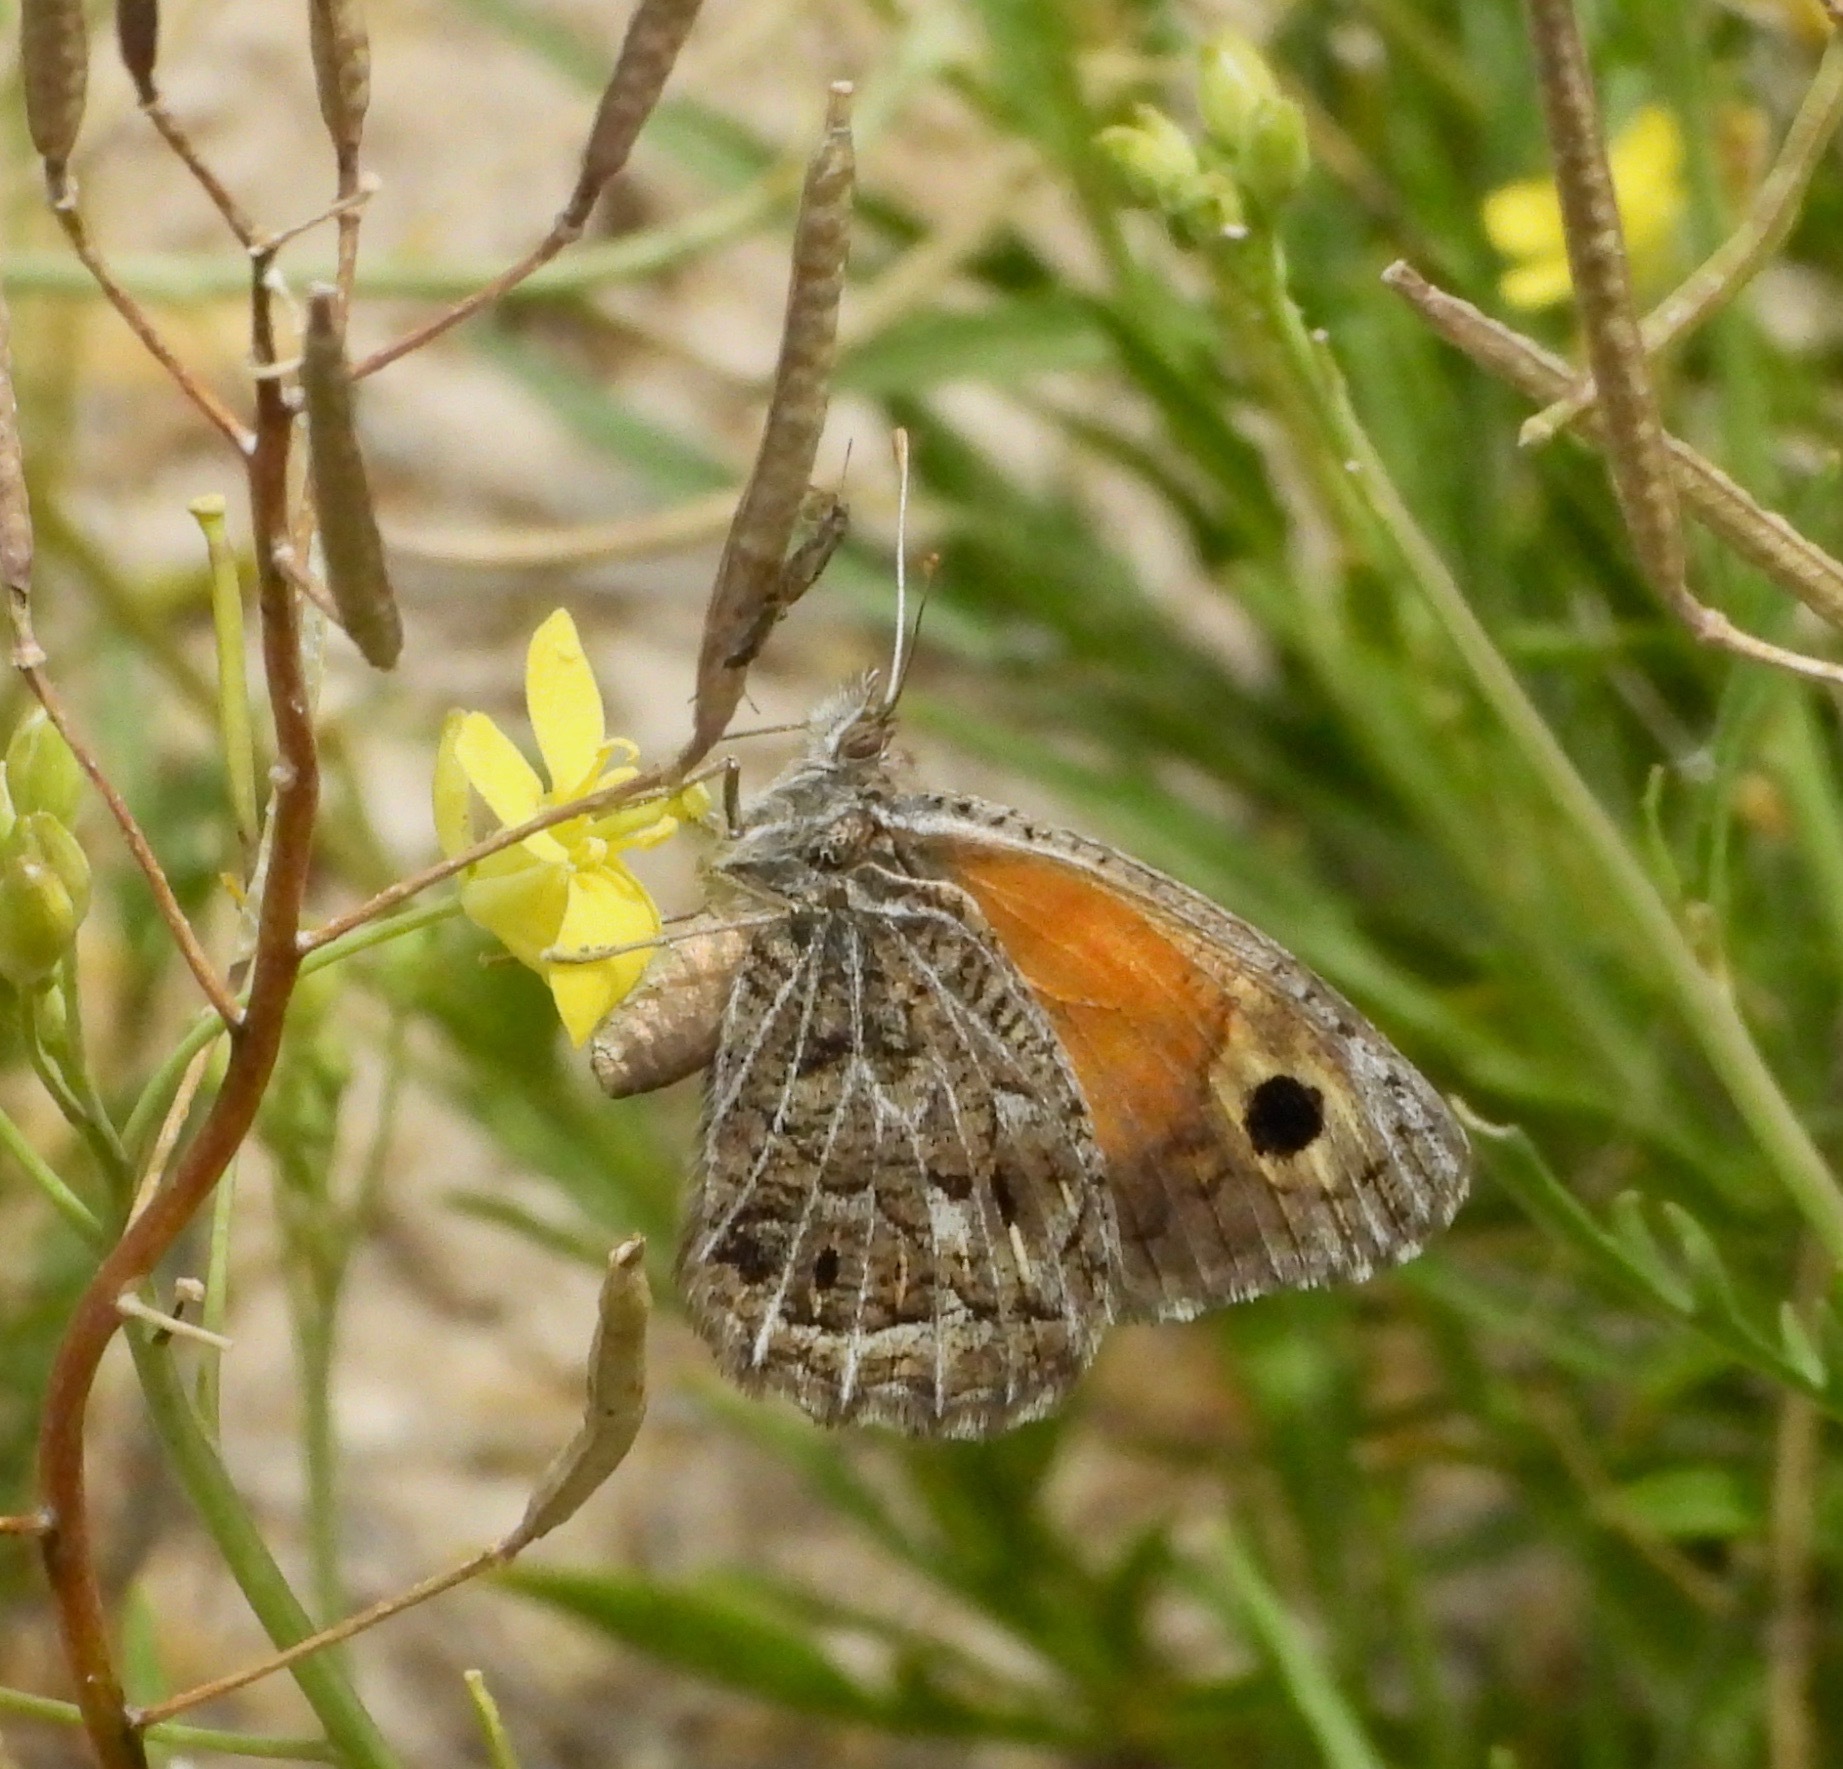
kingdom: Animalia
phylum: Arthropoda
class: Insecta
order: Lepidoptera
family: Nymphalidae
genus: Argyrophorus
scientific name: Argyrophorus
